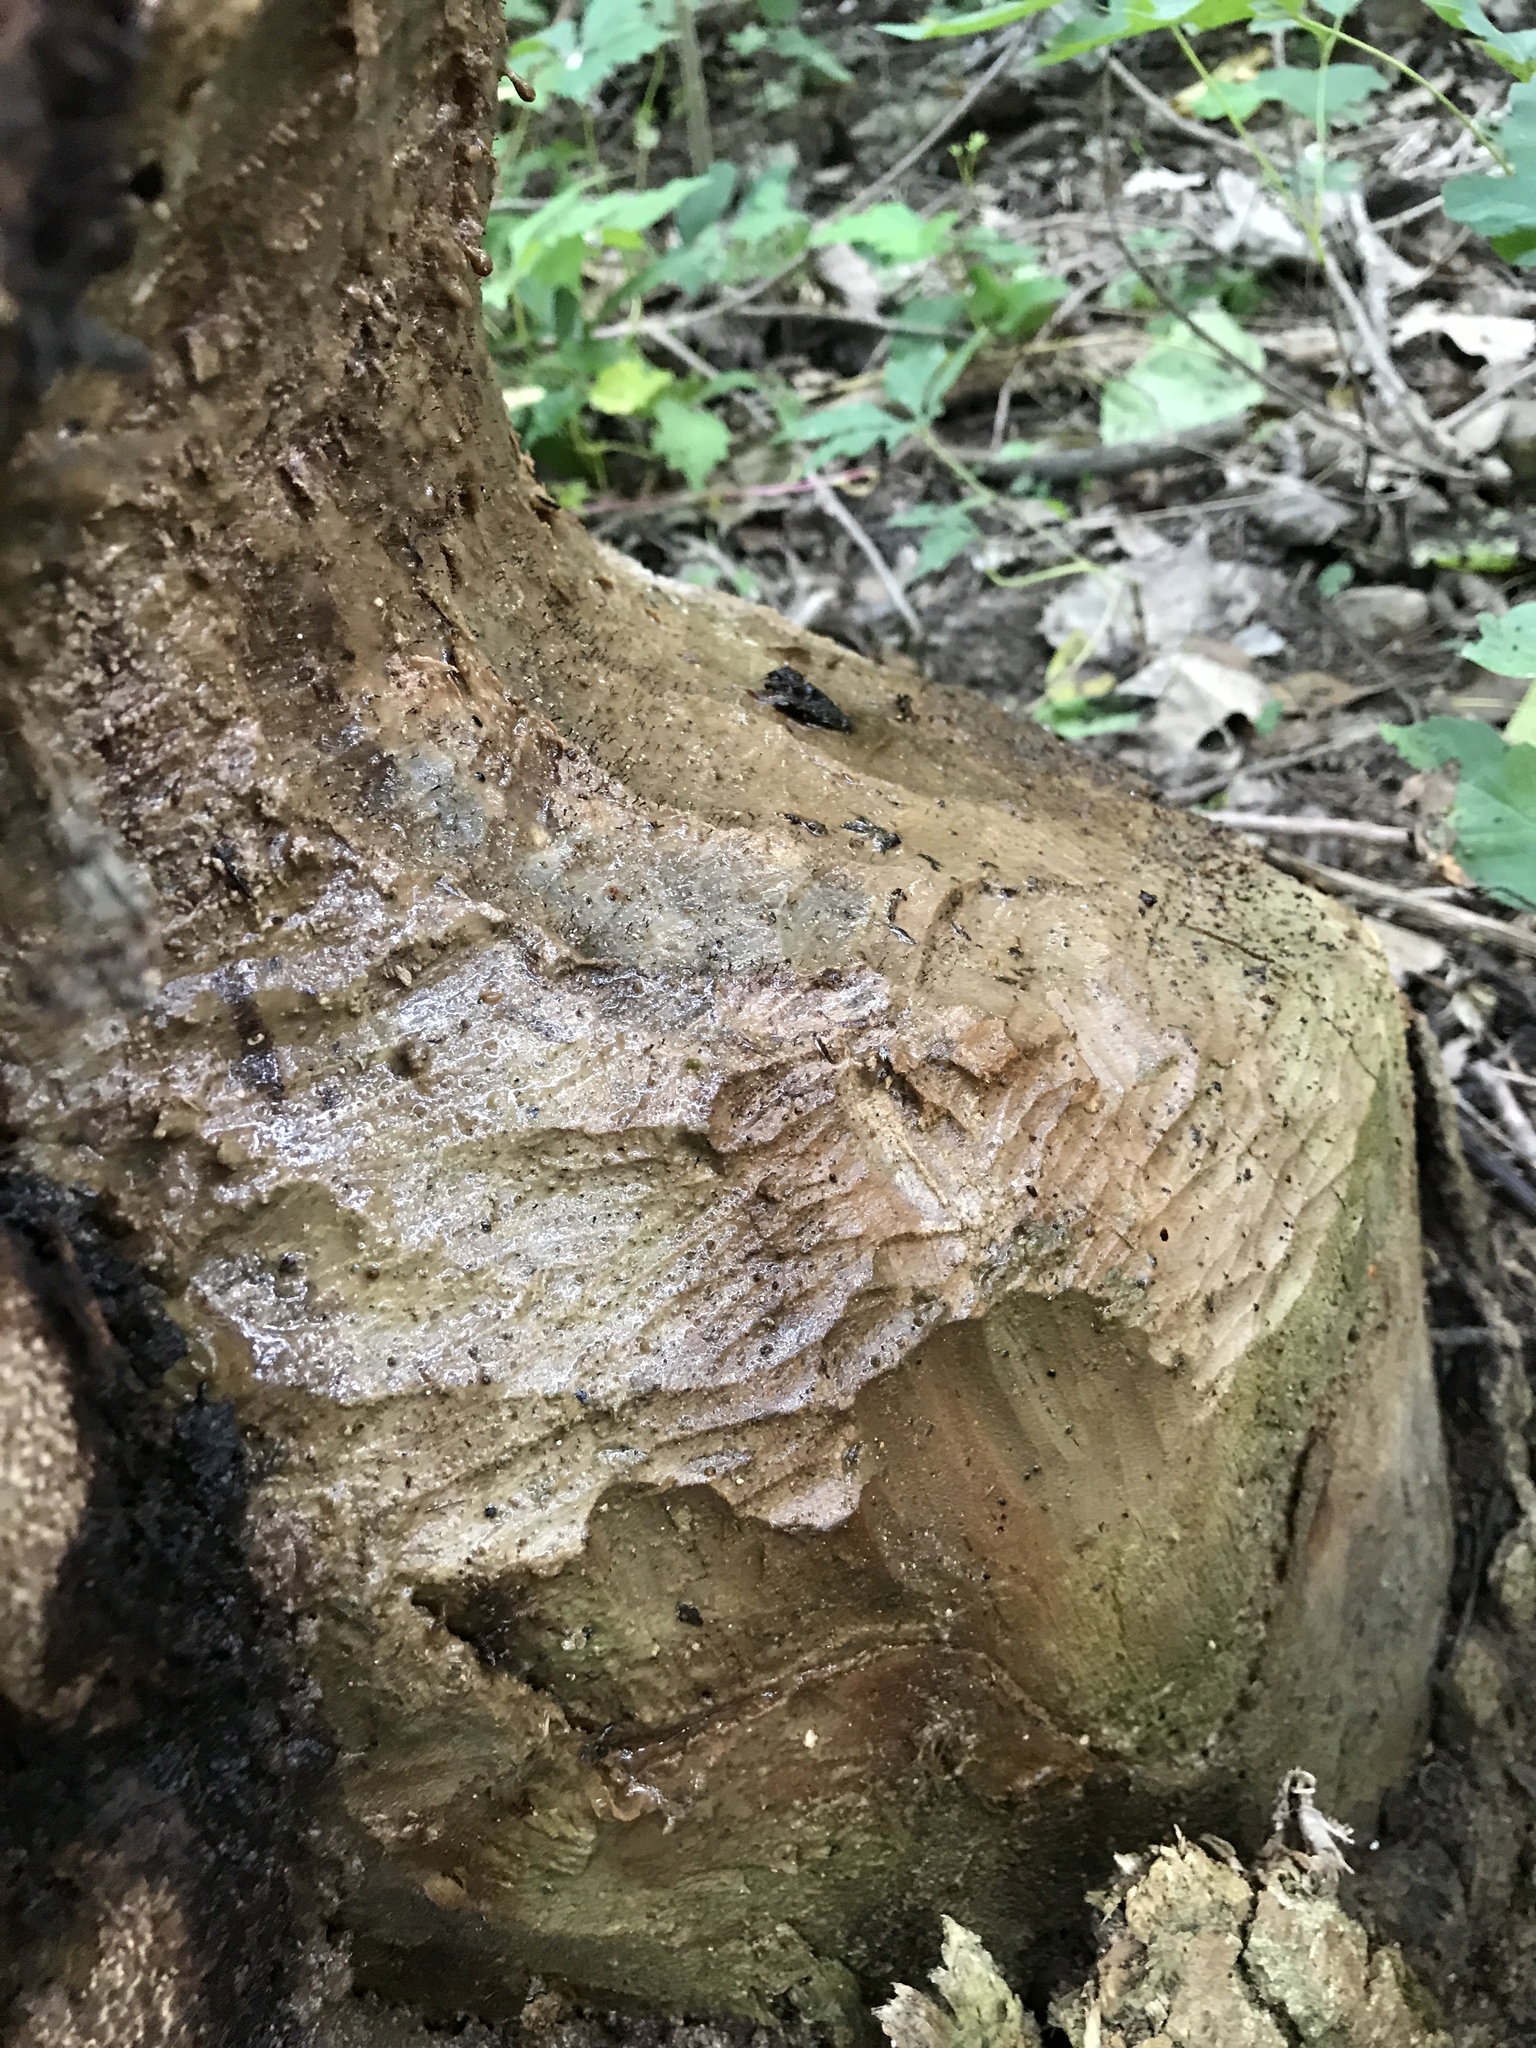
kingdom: Animalia
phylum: Chordata
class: Mammalia
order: Rodentia
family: Castoridae
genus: Castor
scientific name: Castor canadensis
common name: American beaver
